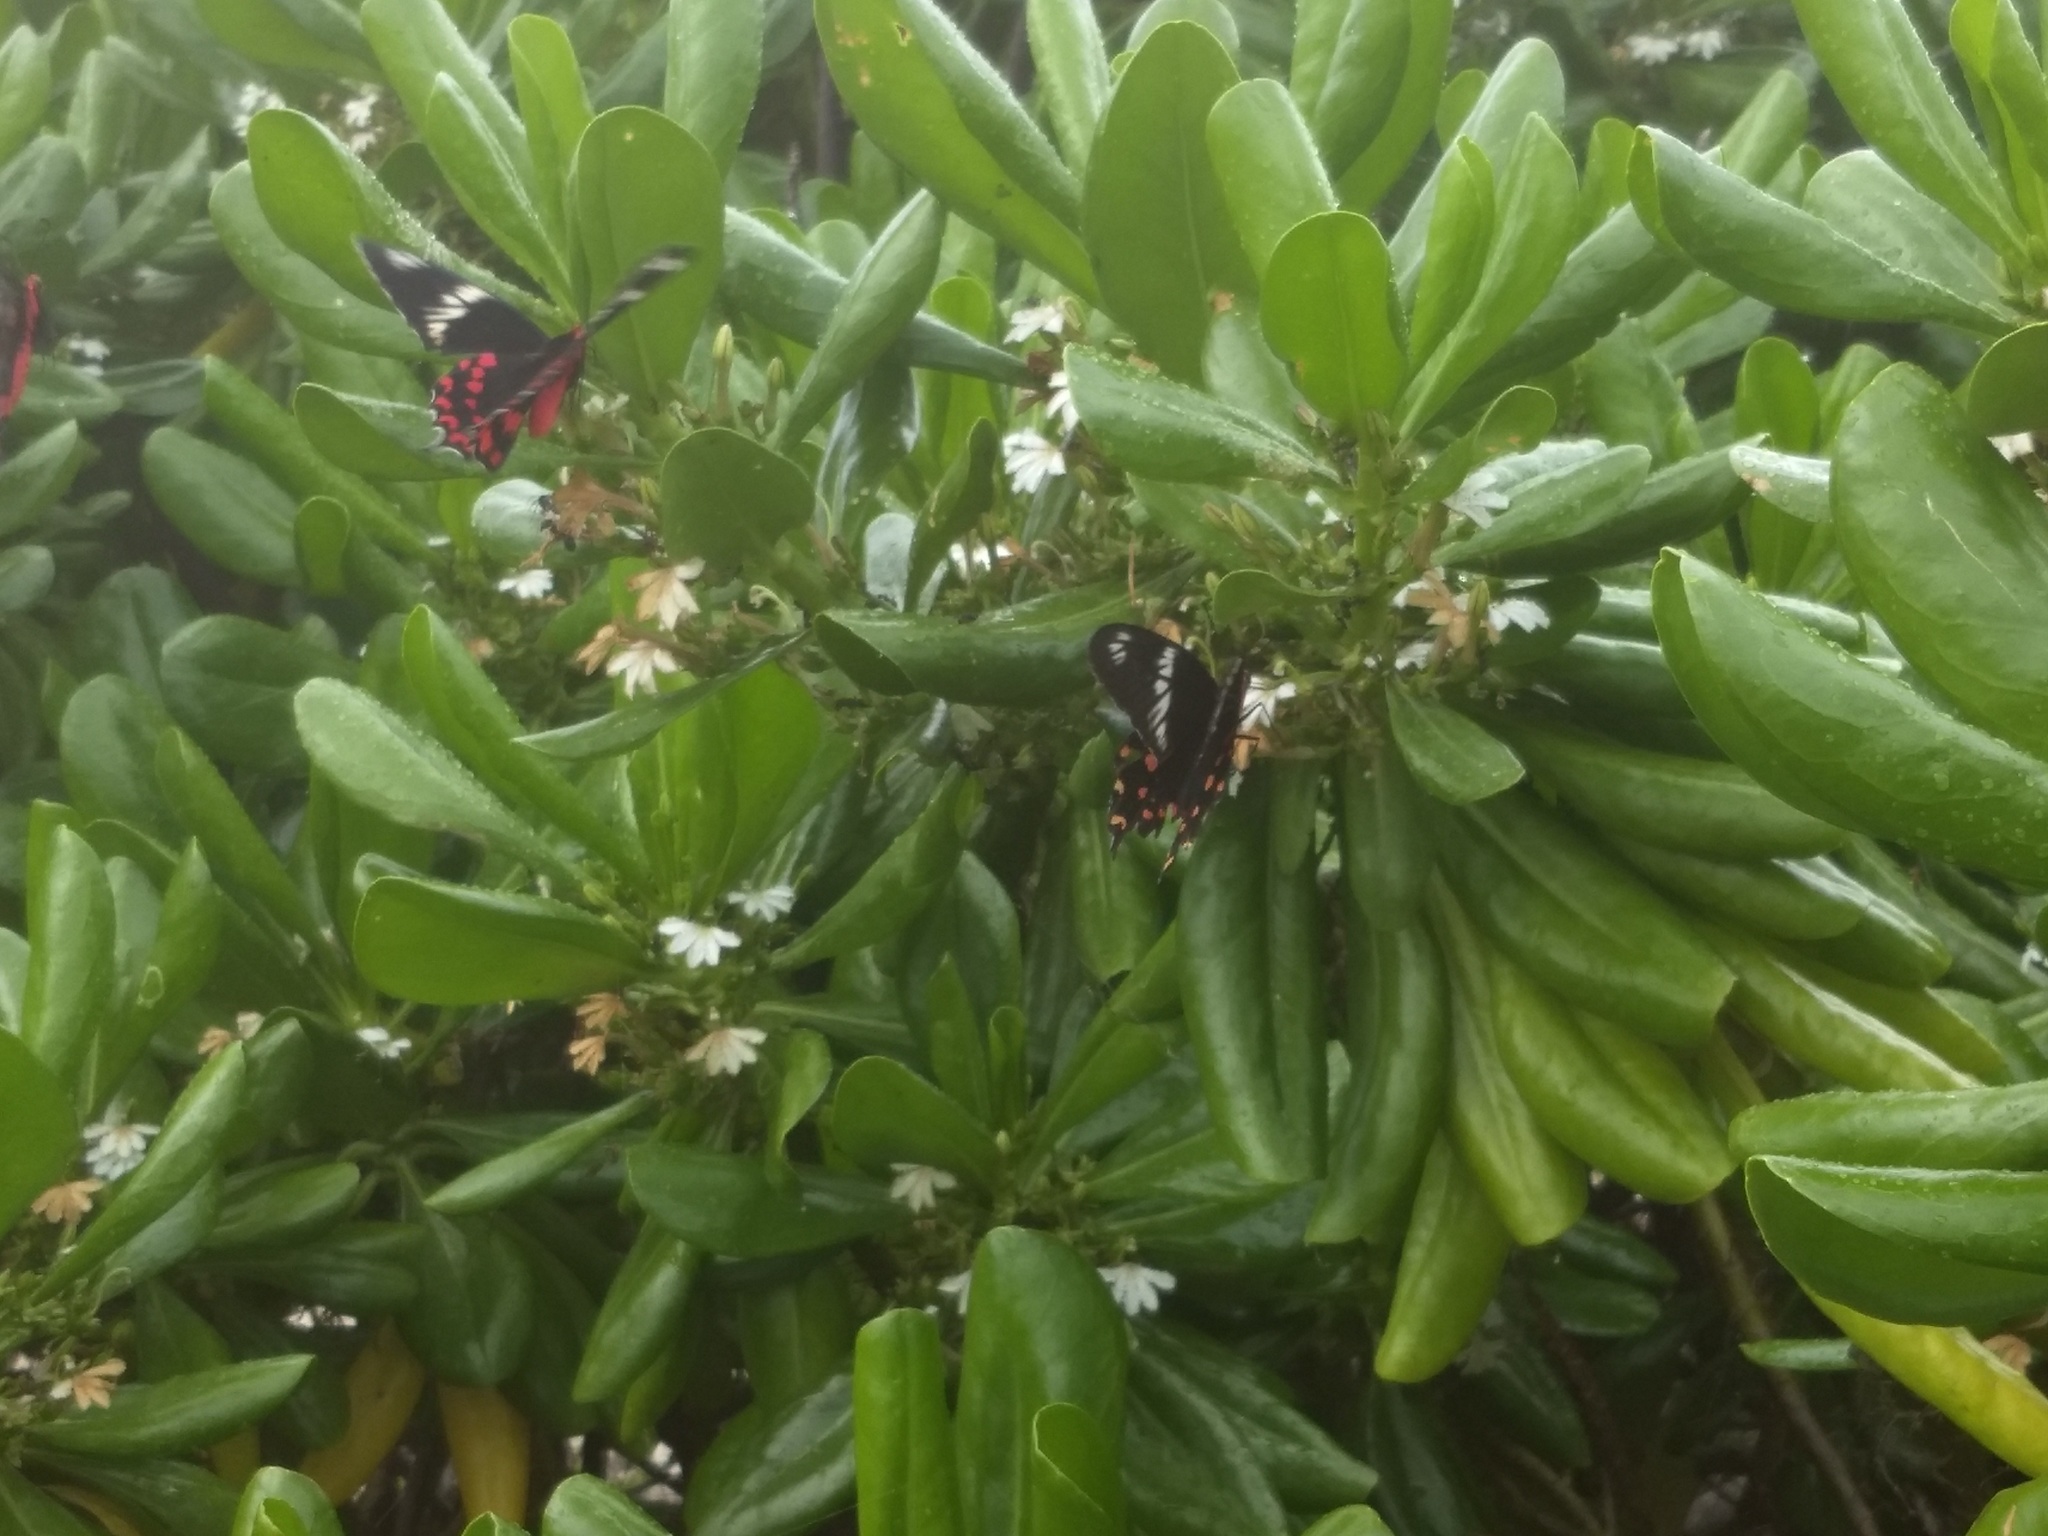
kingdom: Animalia
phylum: Arthropoda
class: Insecta
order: Lepidoptera
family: Papilionidae
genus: Pachliopta
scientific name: Pachliopta hector
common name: Crimson rose
